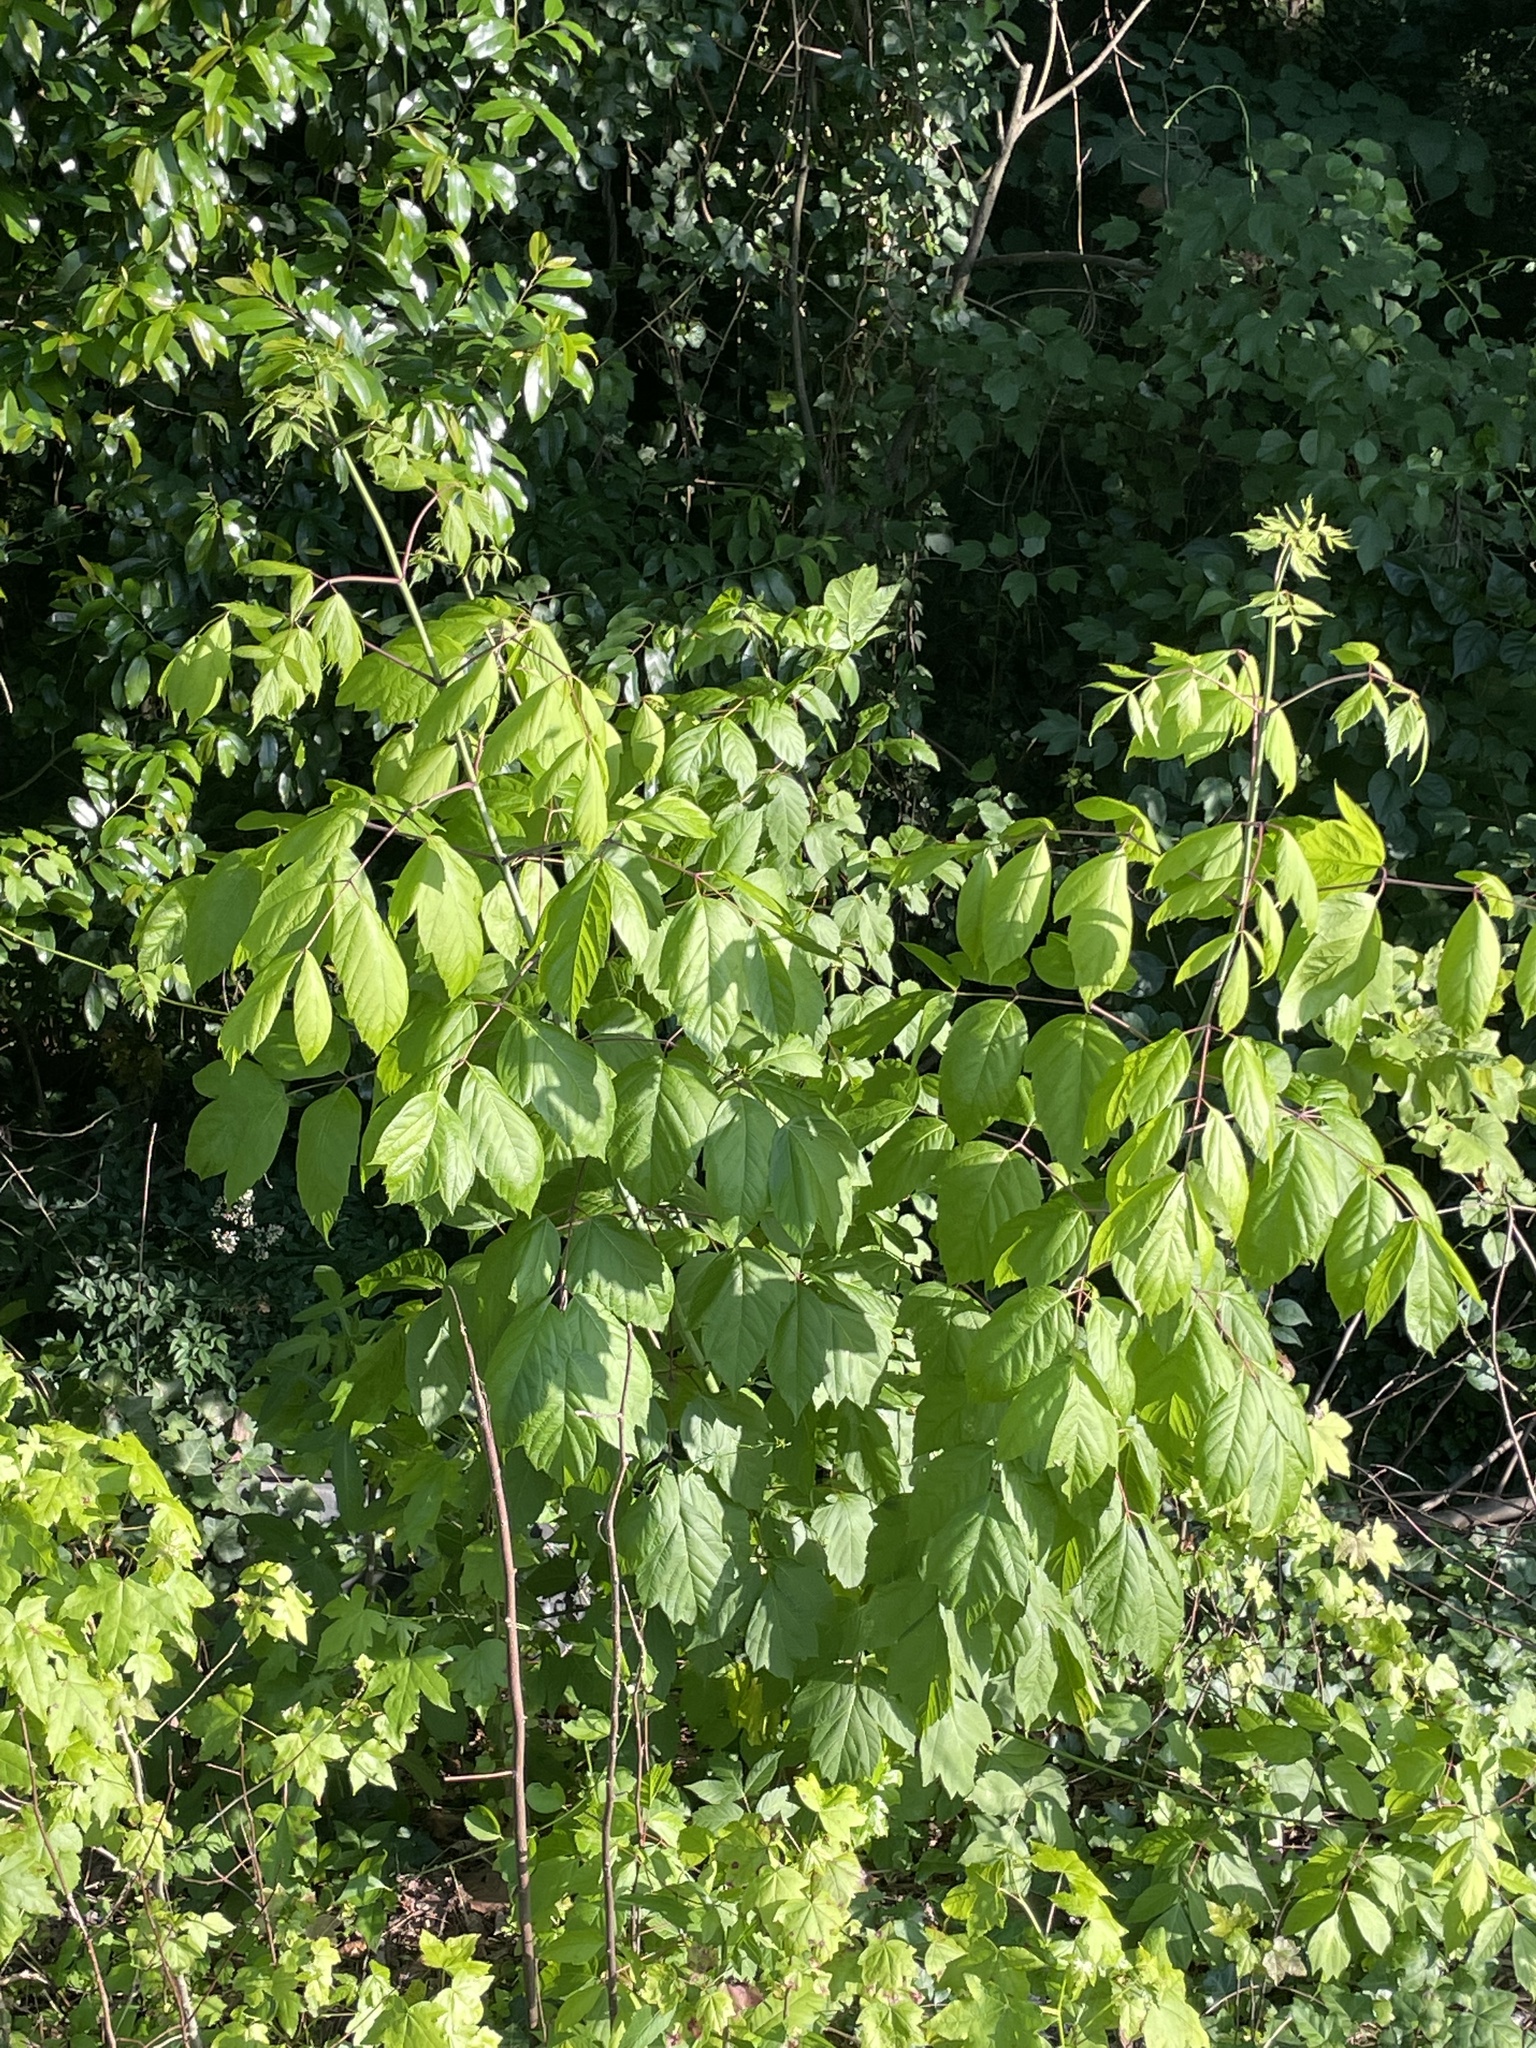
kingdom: Plantae
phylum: Tracheophyta
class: Magnoliopsida
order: Sapindales
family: Sapindaceae
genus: Acer
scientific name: Acer negundo
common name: Ashleaf maple
